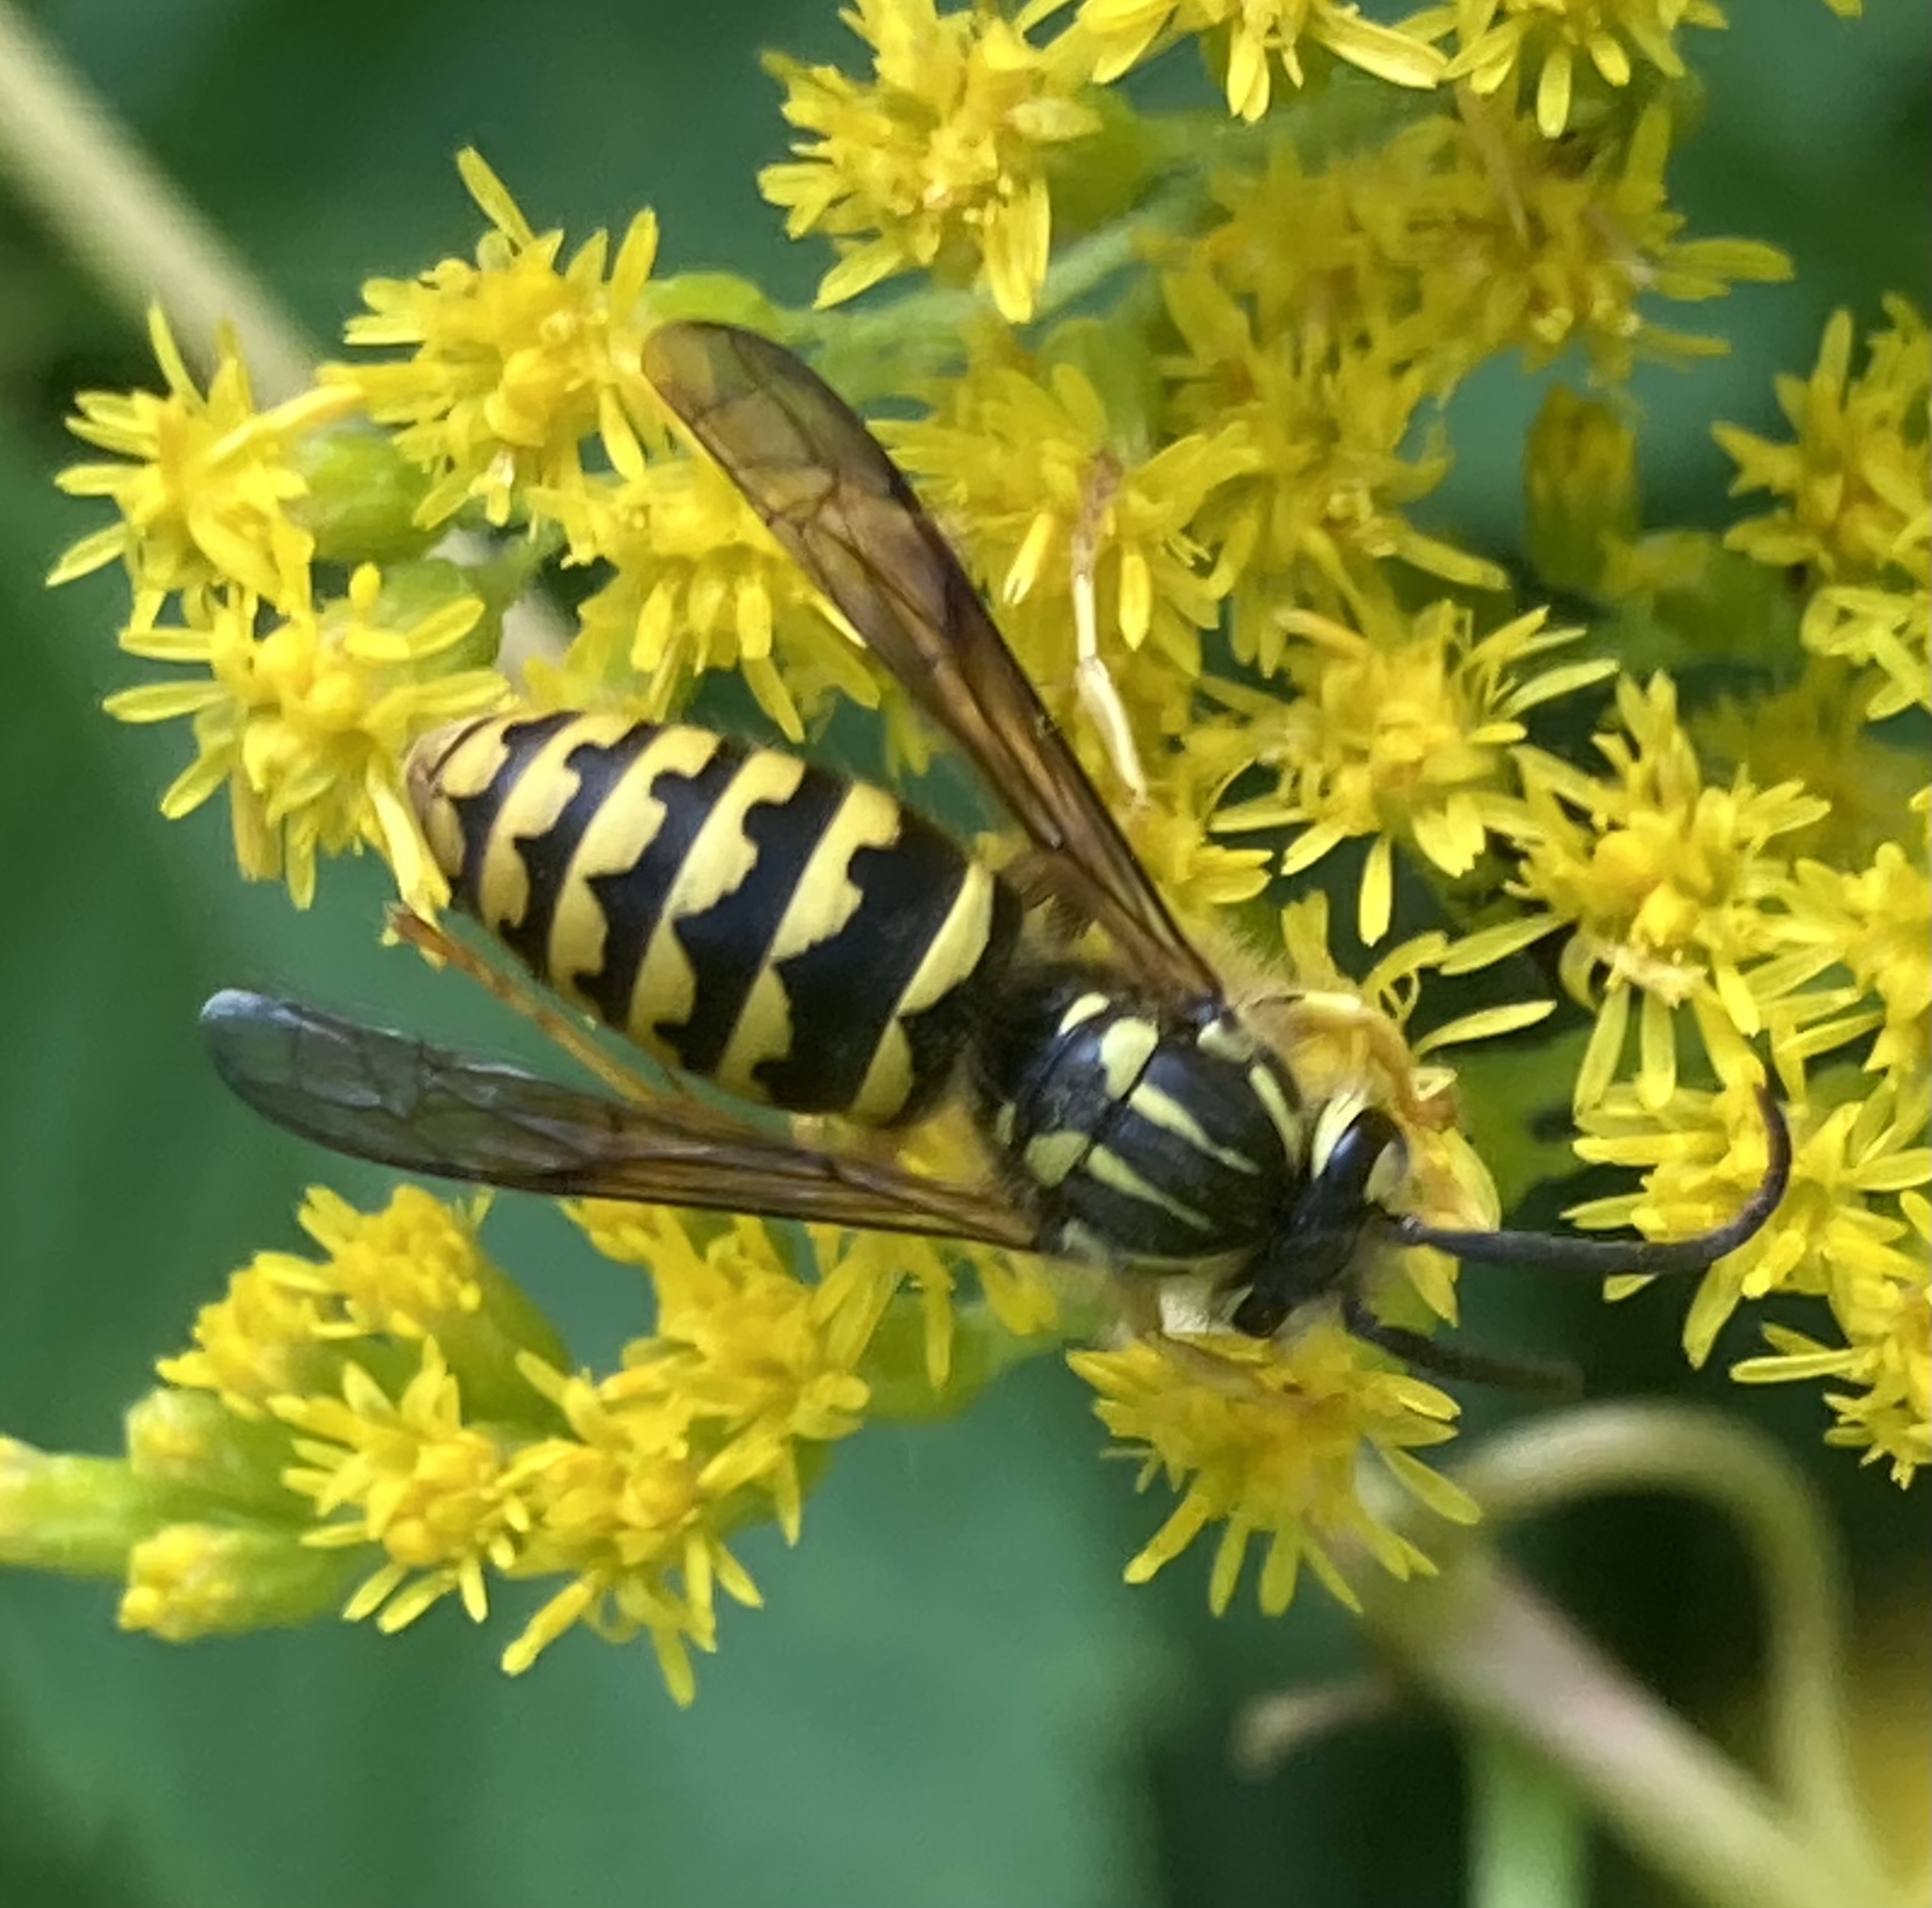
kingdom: Animalia
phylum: Arthropoda
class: Insecta
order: Hymenoptera
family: Vespidae
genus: Dolichovespula
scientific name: Dolichovespula arenaria
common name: Aerial yellowjacket
